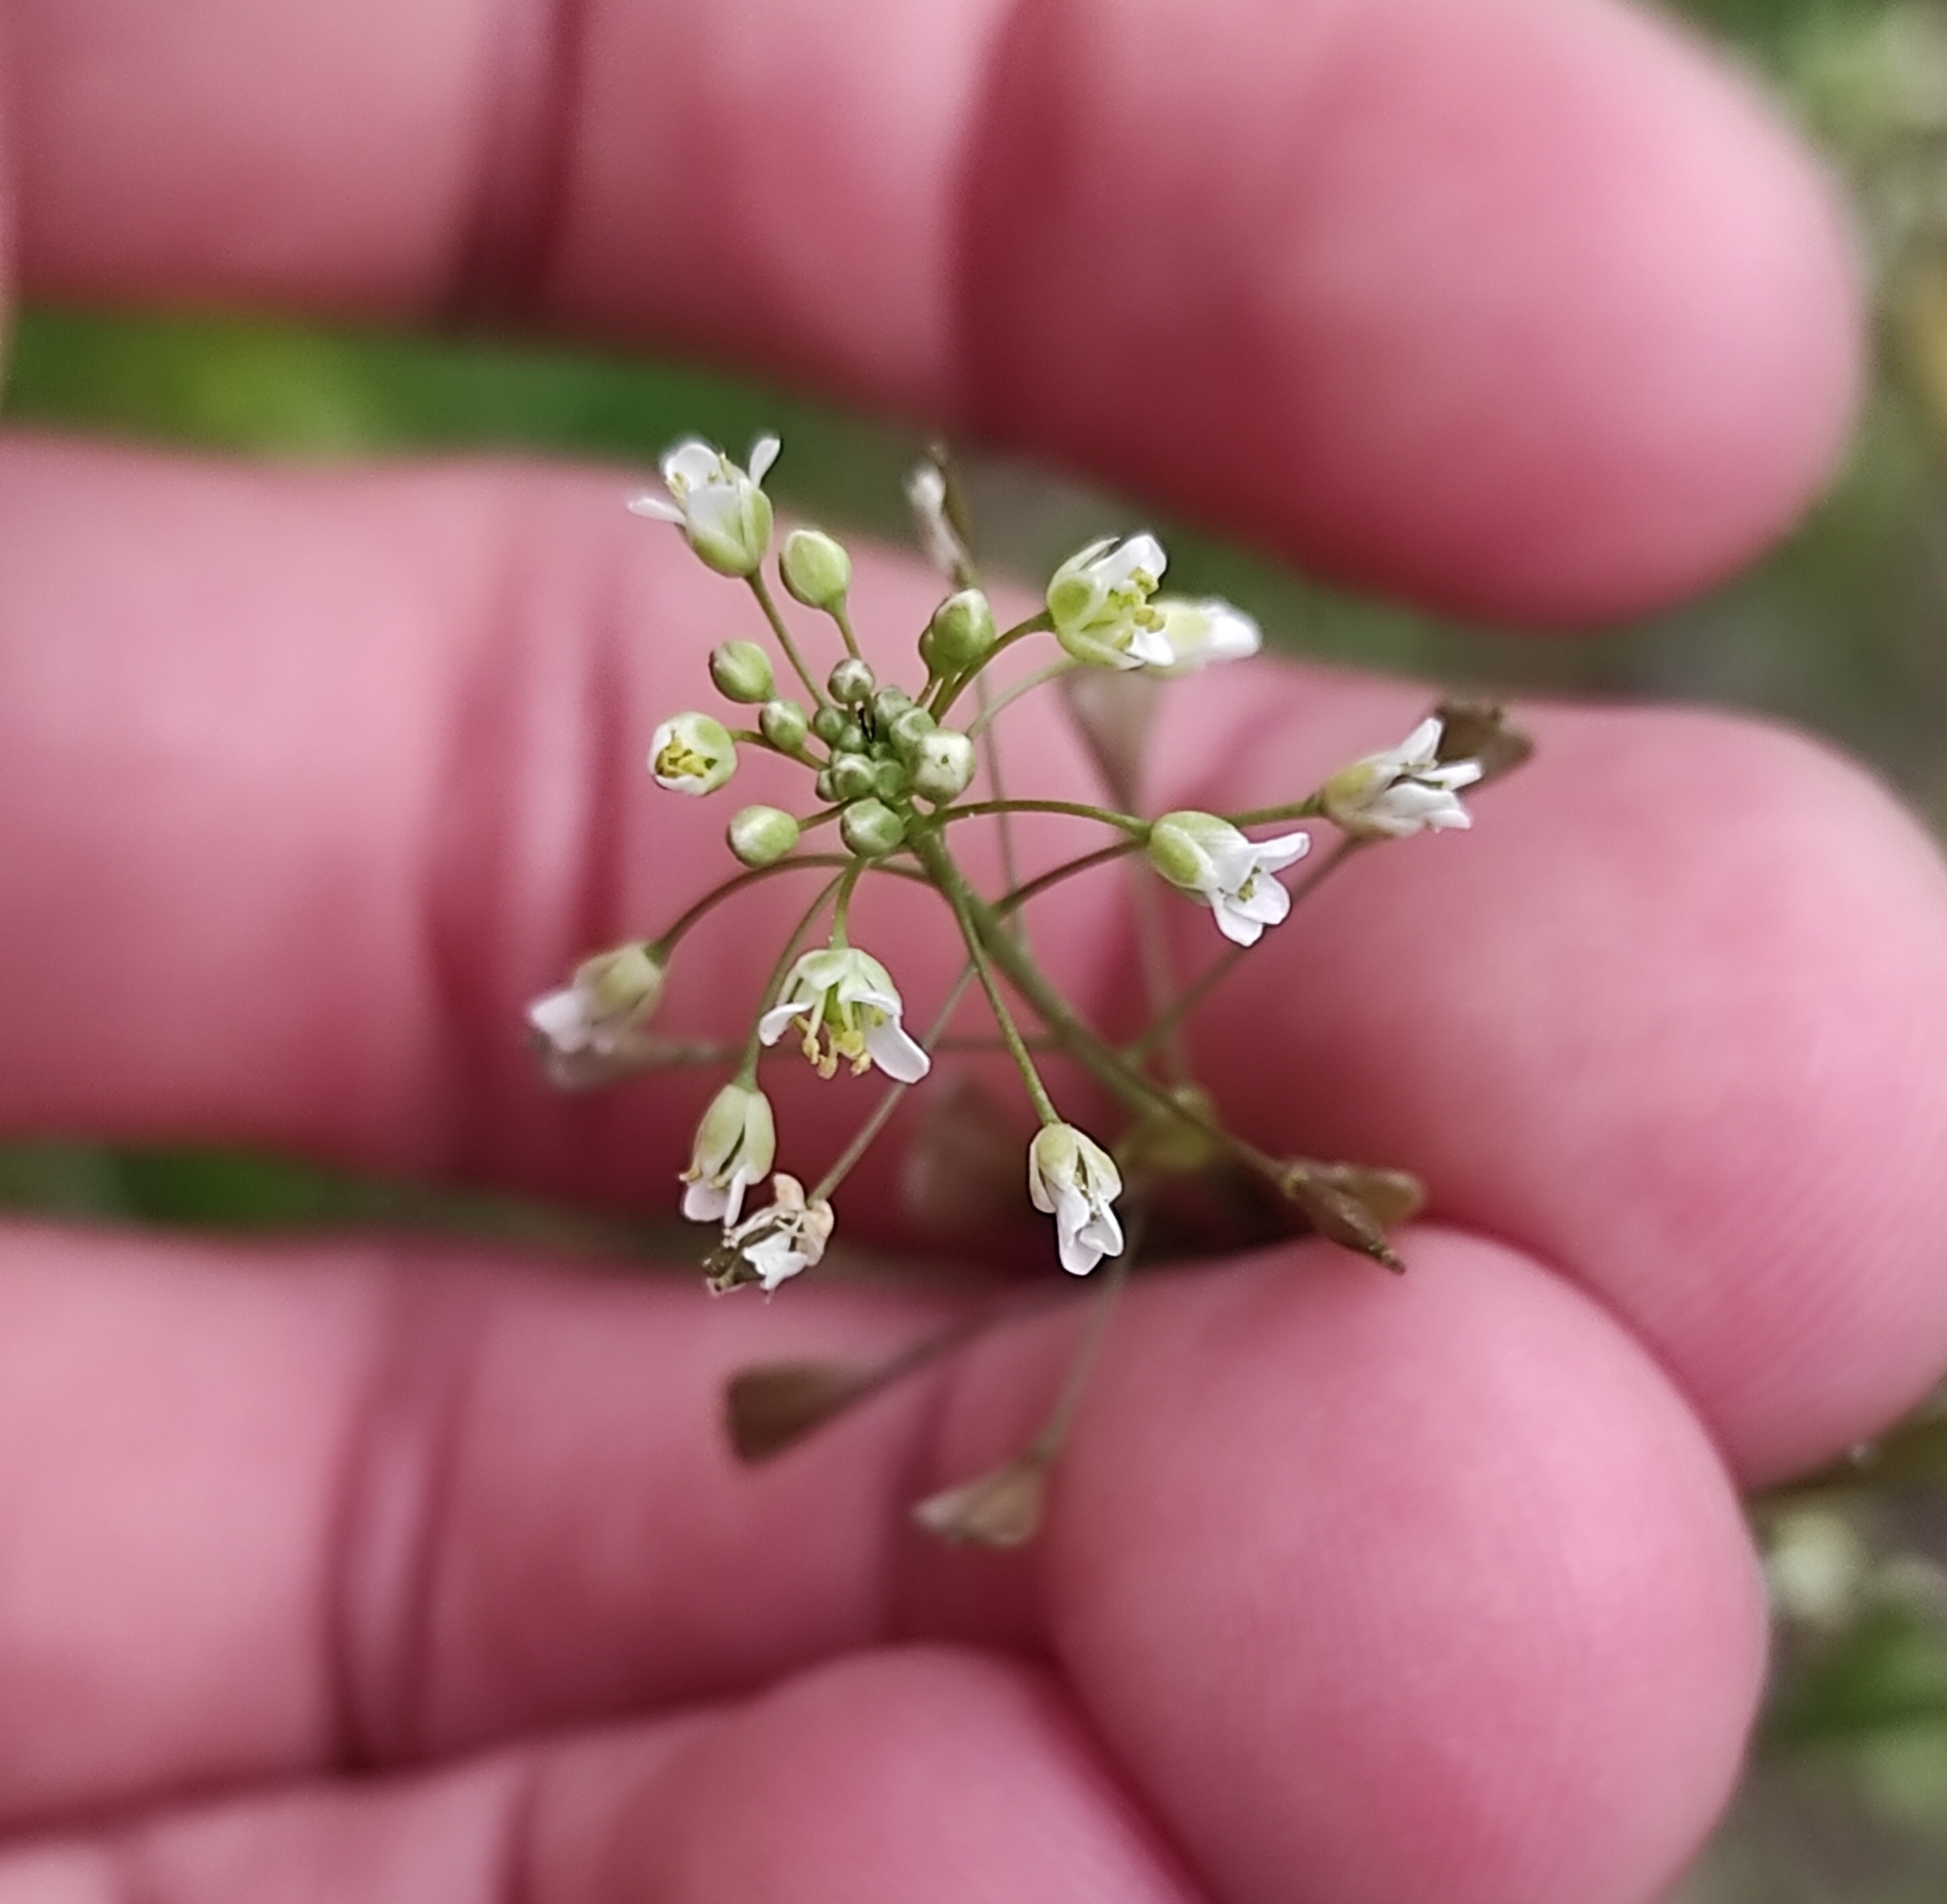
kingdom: Plantae
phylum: Tracheophyta
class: Magnoliopsida
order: Brassicales
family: Brassicaceae
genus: Capsella
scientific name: Capsella bursa-pastoris
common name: Shepherd's purse
